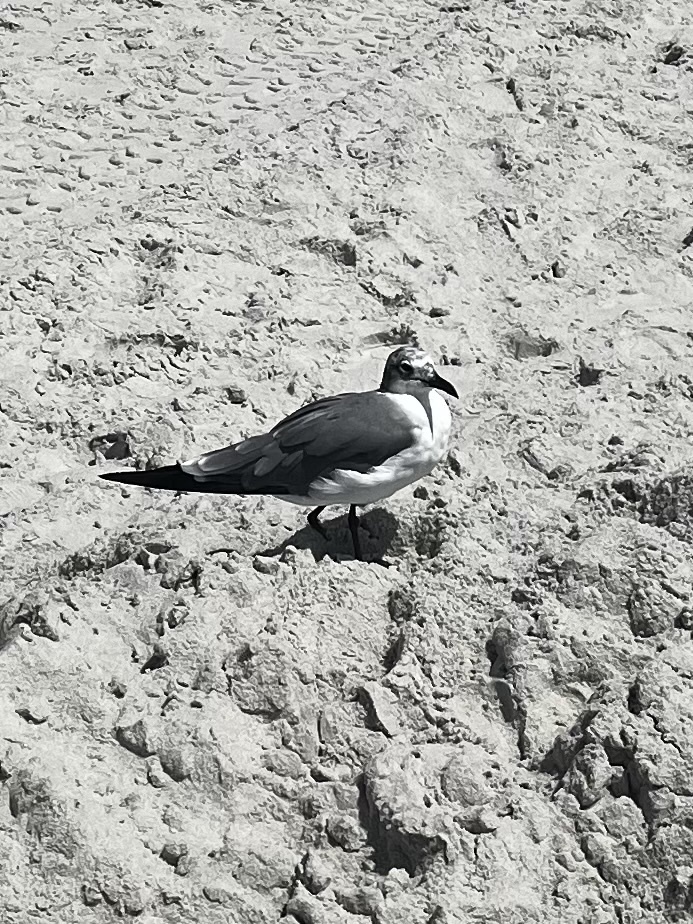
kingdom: Animalia
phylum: Chordata
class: Aves
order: Charadriiformes
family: Laridae
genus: Leucophaeus
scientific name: Leucophaeus atricilla
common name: Laughing gull
